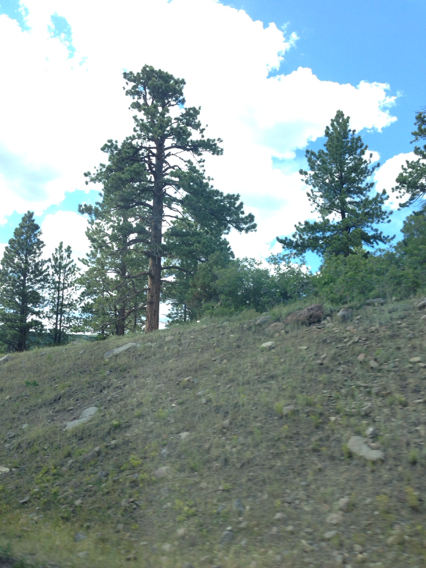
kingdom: Plantae
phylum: Tracheophyta
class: Pinopsida
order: Pinales
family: Pinaceae
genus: Pinus
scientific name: Pinus ponderosa
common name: Western yellow-pine
